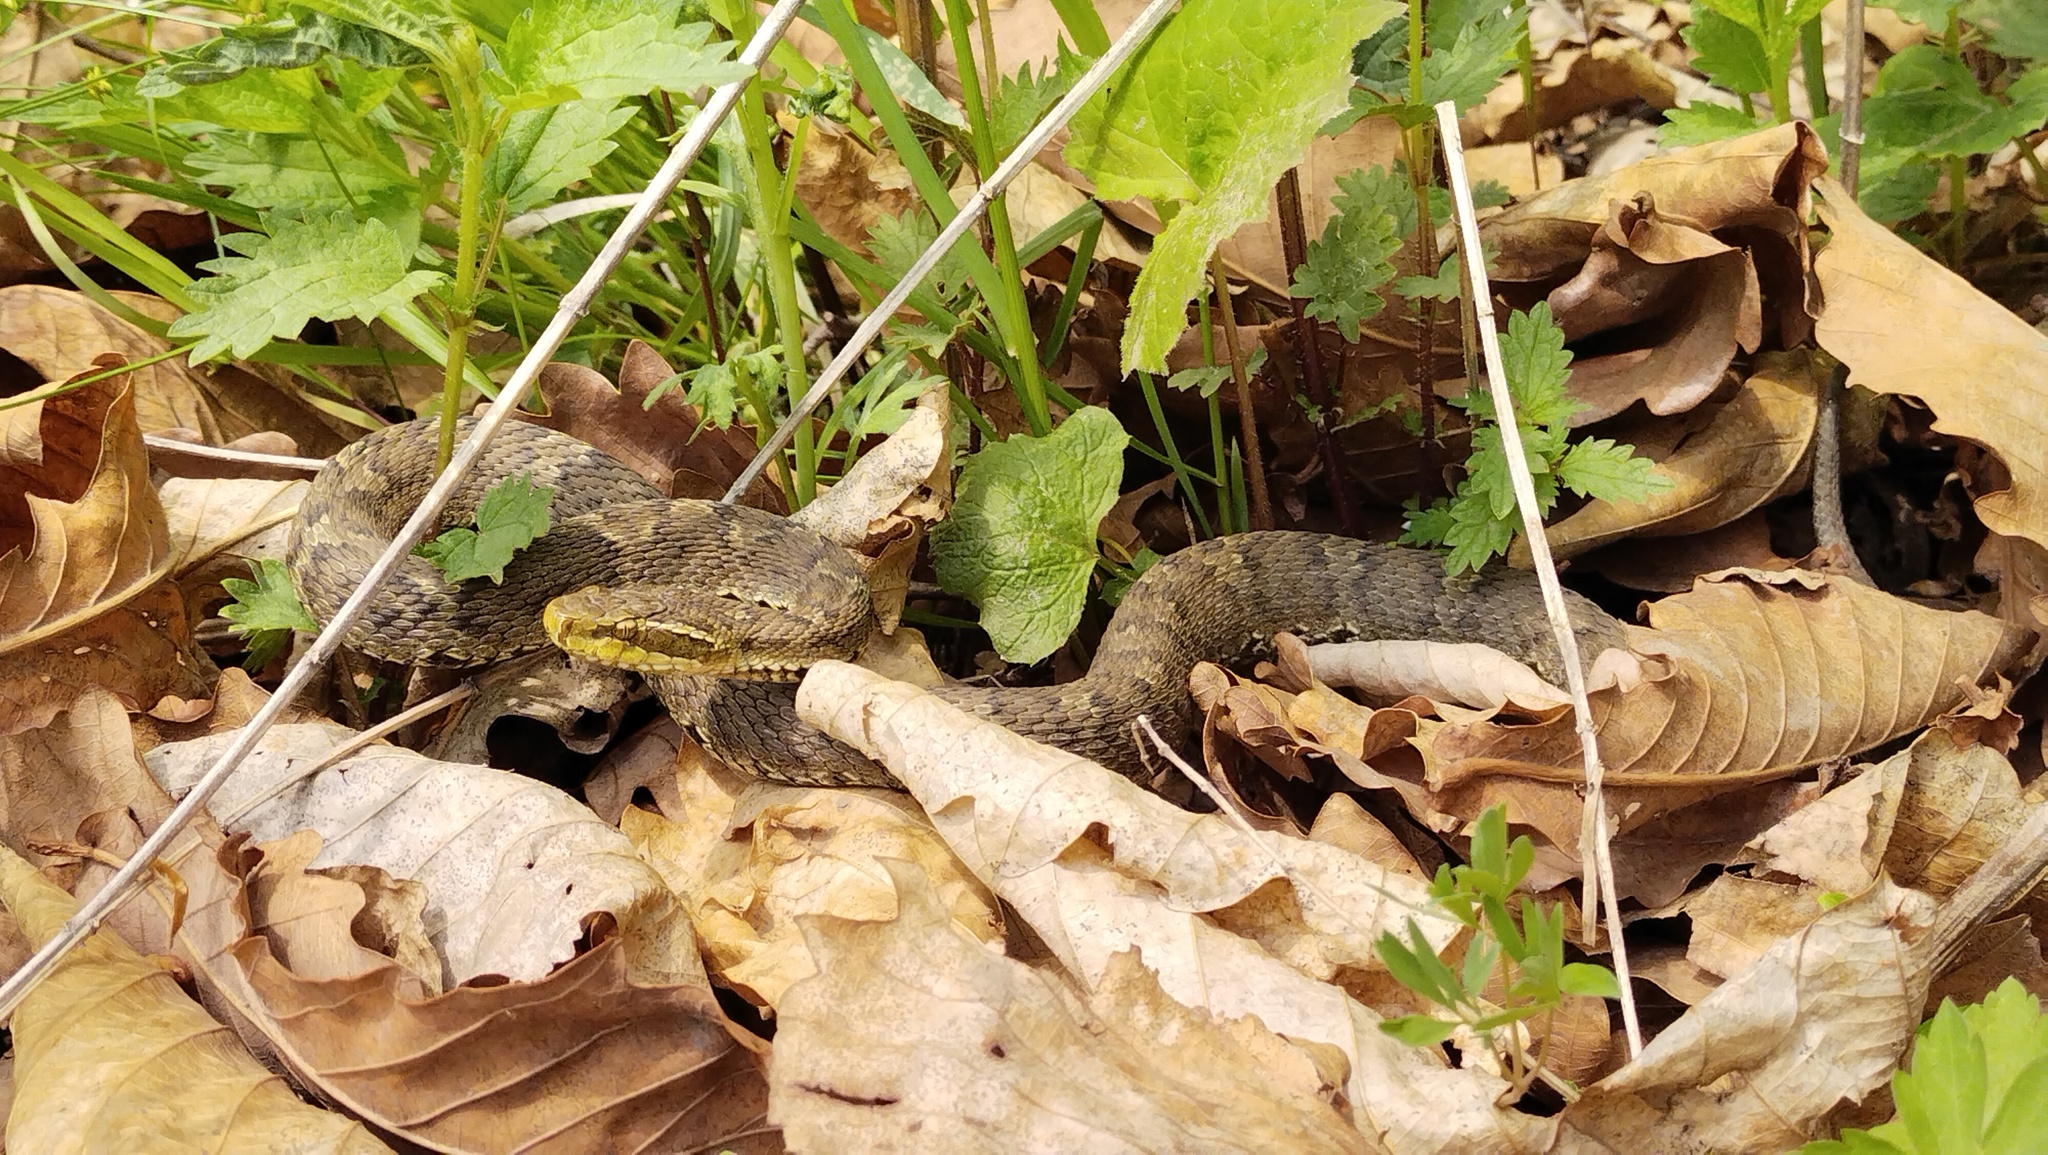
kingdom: Animalia
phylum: Chordata
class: Squamata
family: Viperidae
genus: Gloydius
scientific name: Gloydius ussuriensis
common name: Ussuri mamushi
